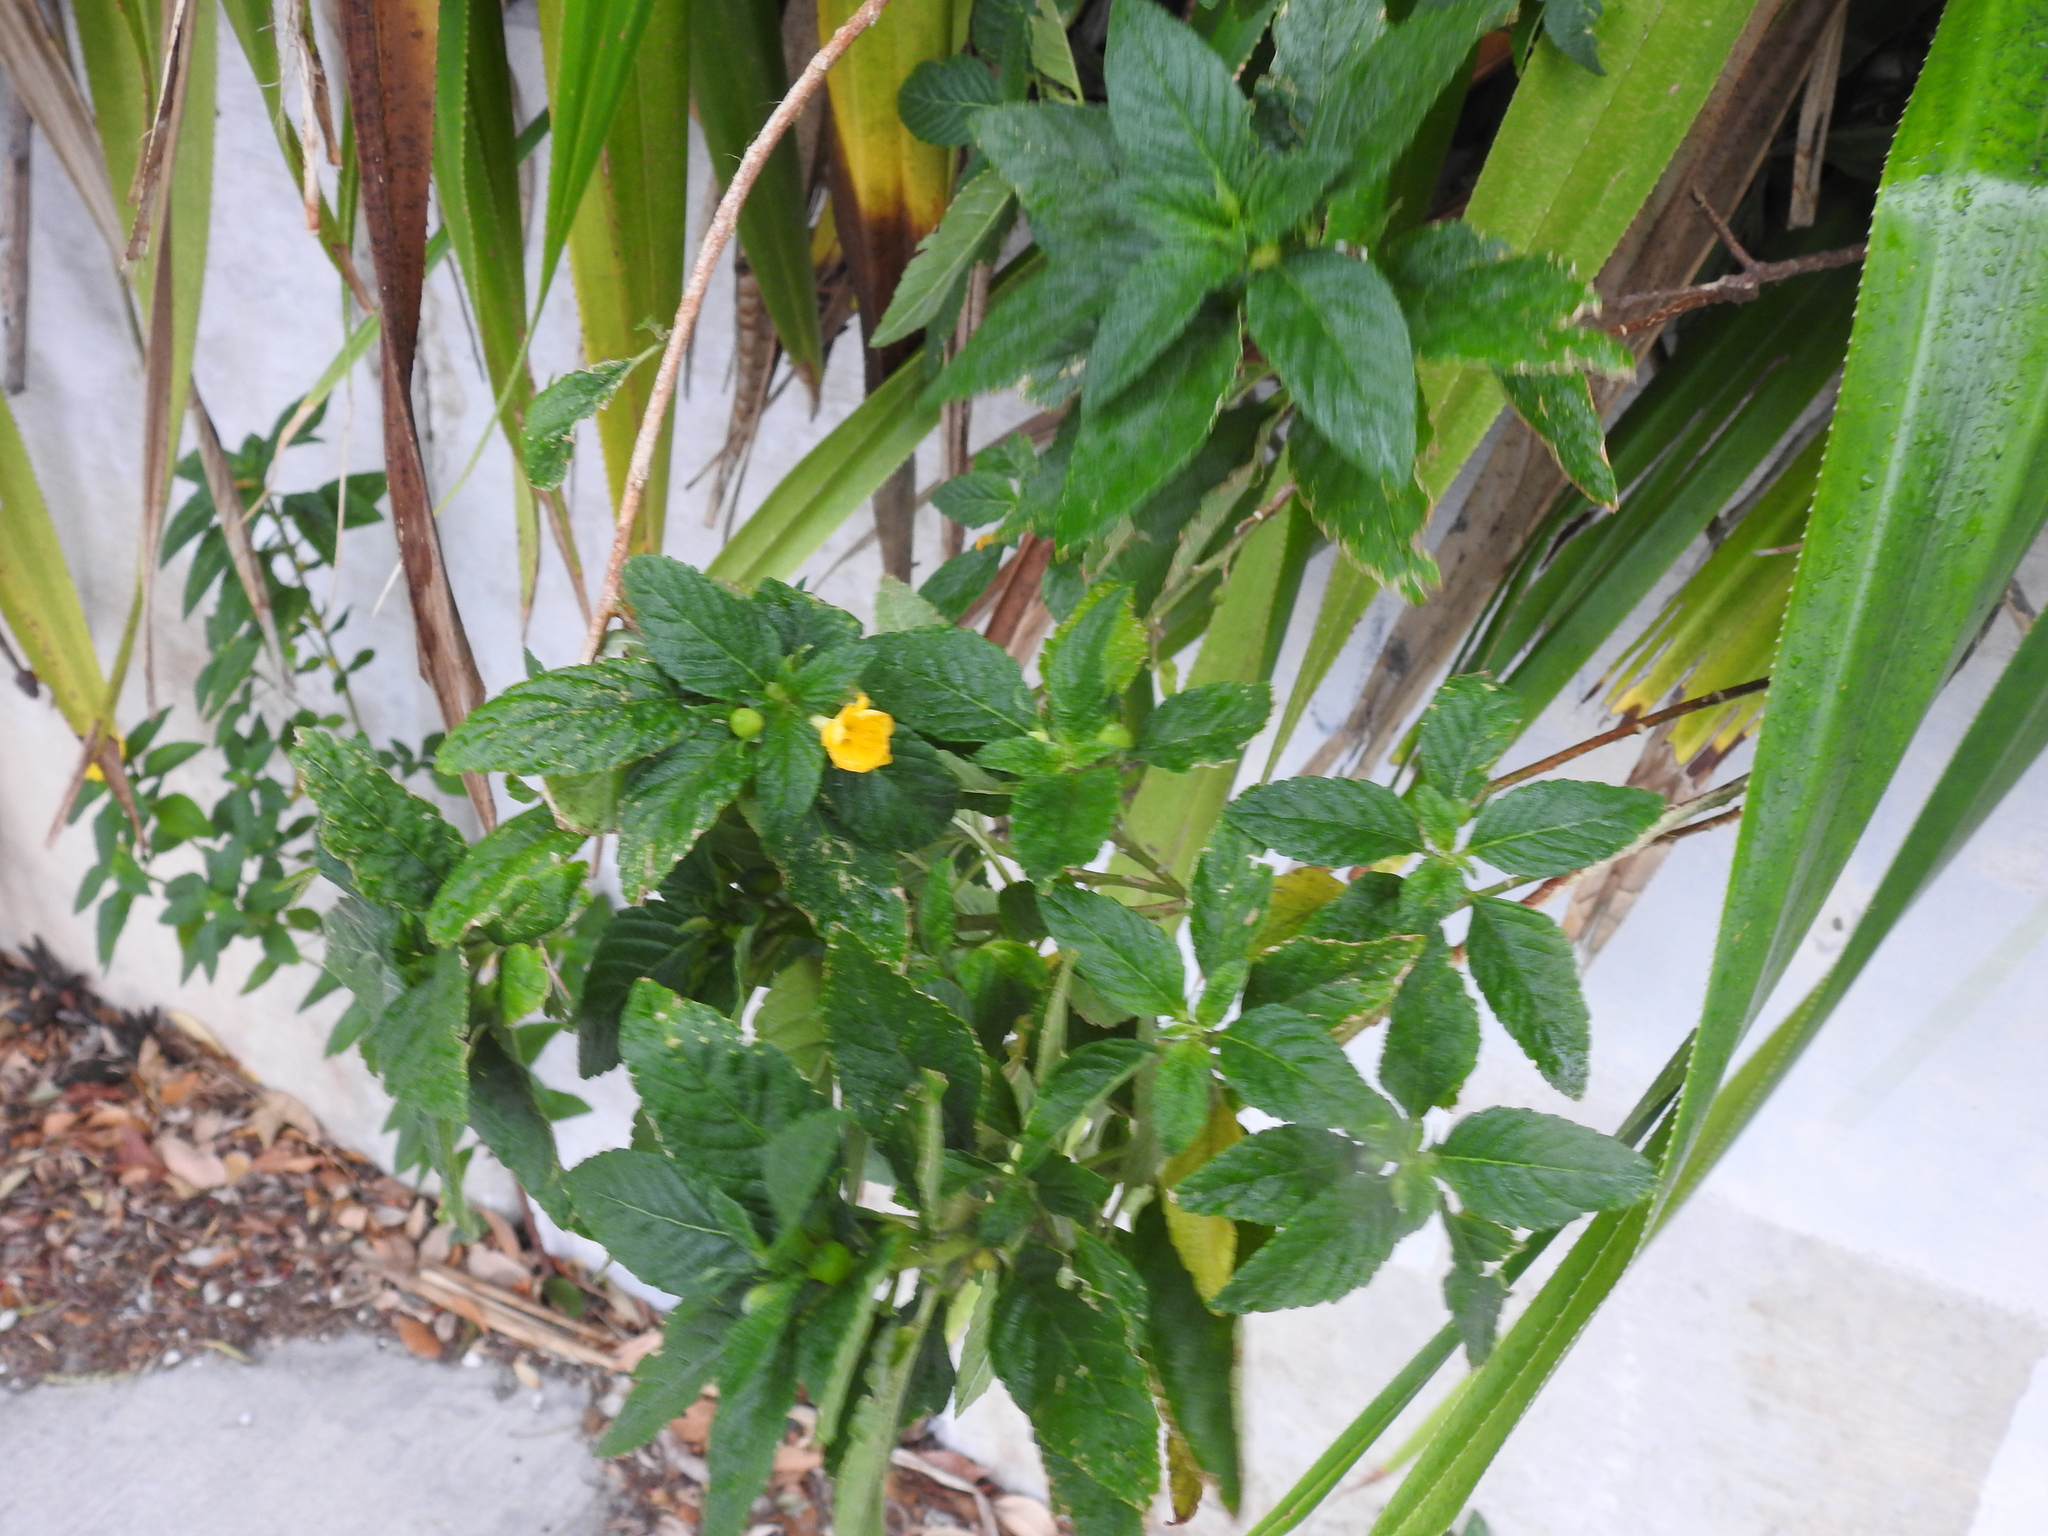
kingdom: Plantae
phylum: Tracheophyta
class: Magnoliopsida
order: Malpighiales
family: Turneraceae
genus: Turnera
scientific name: Turnera ulmifolia
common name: Ramgoat dashalong
